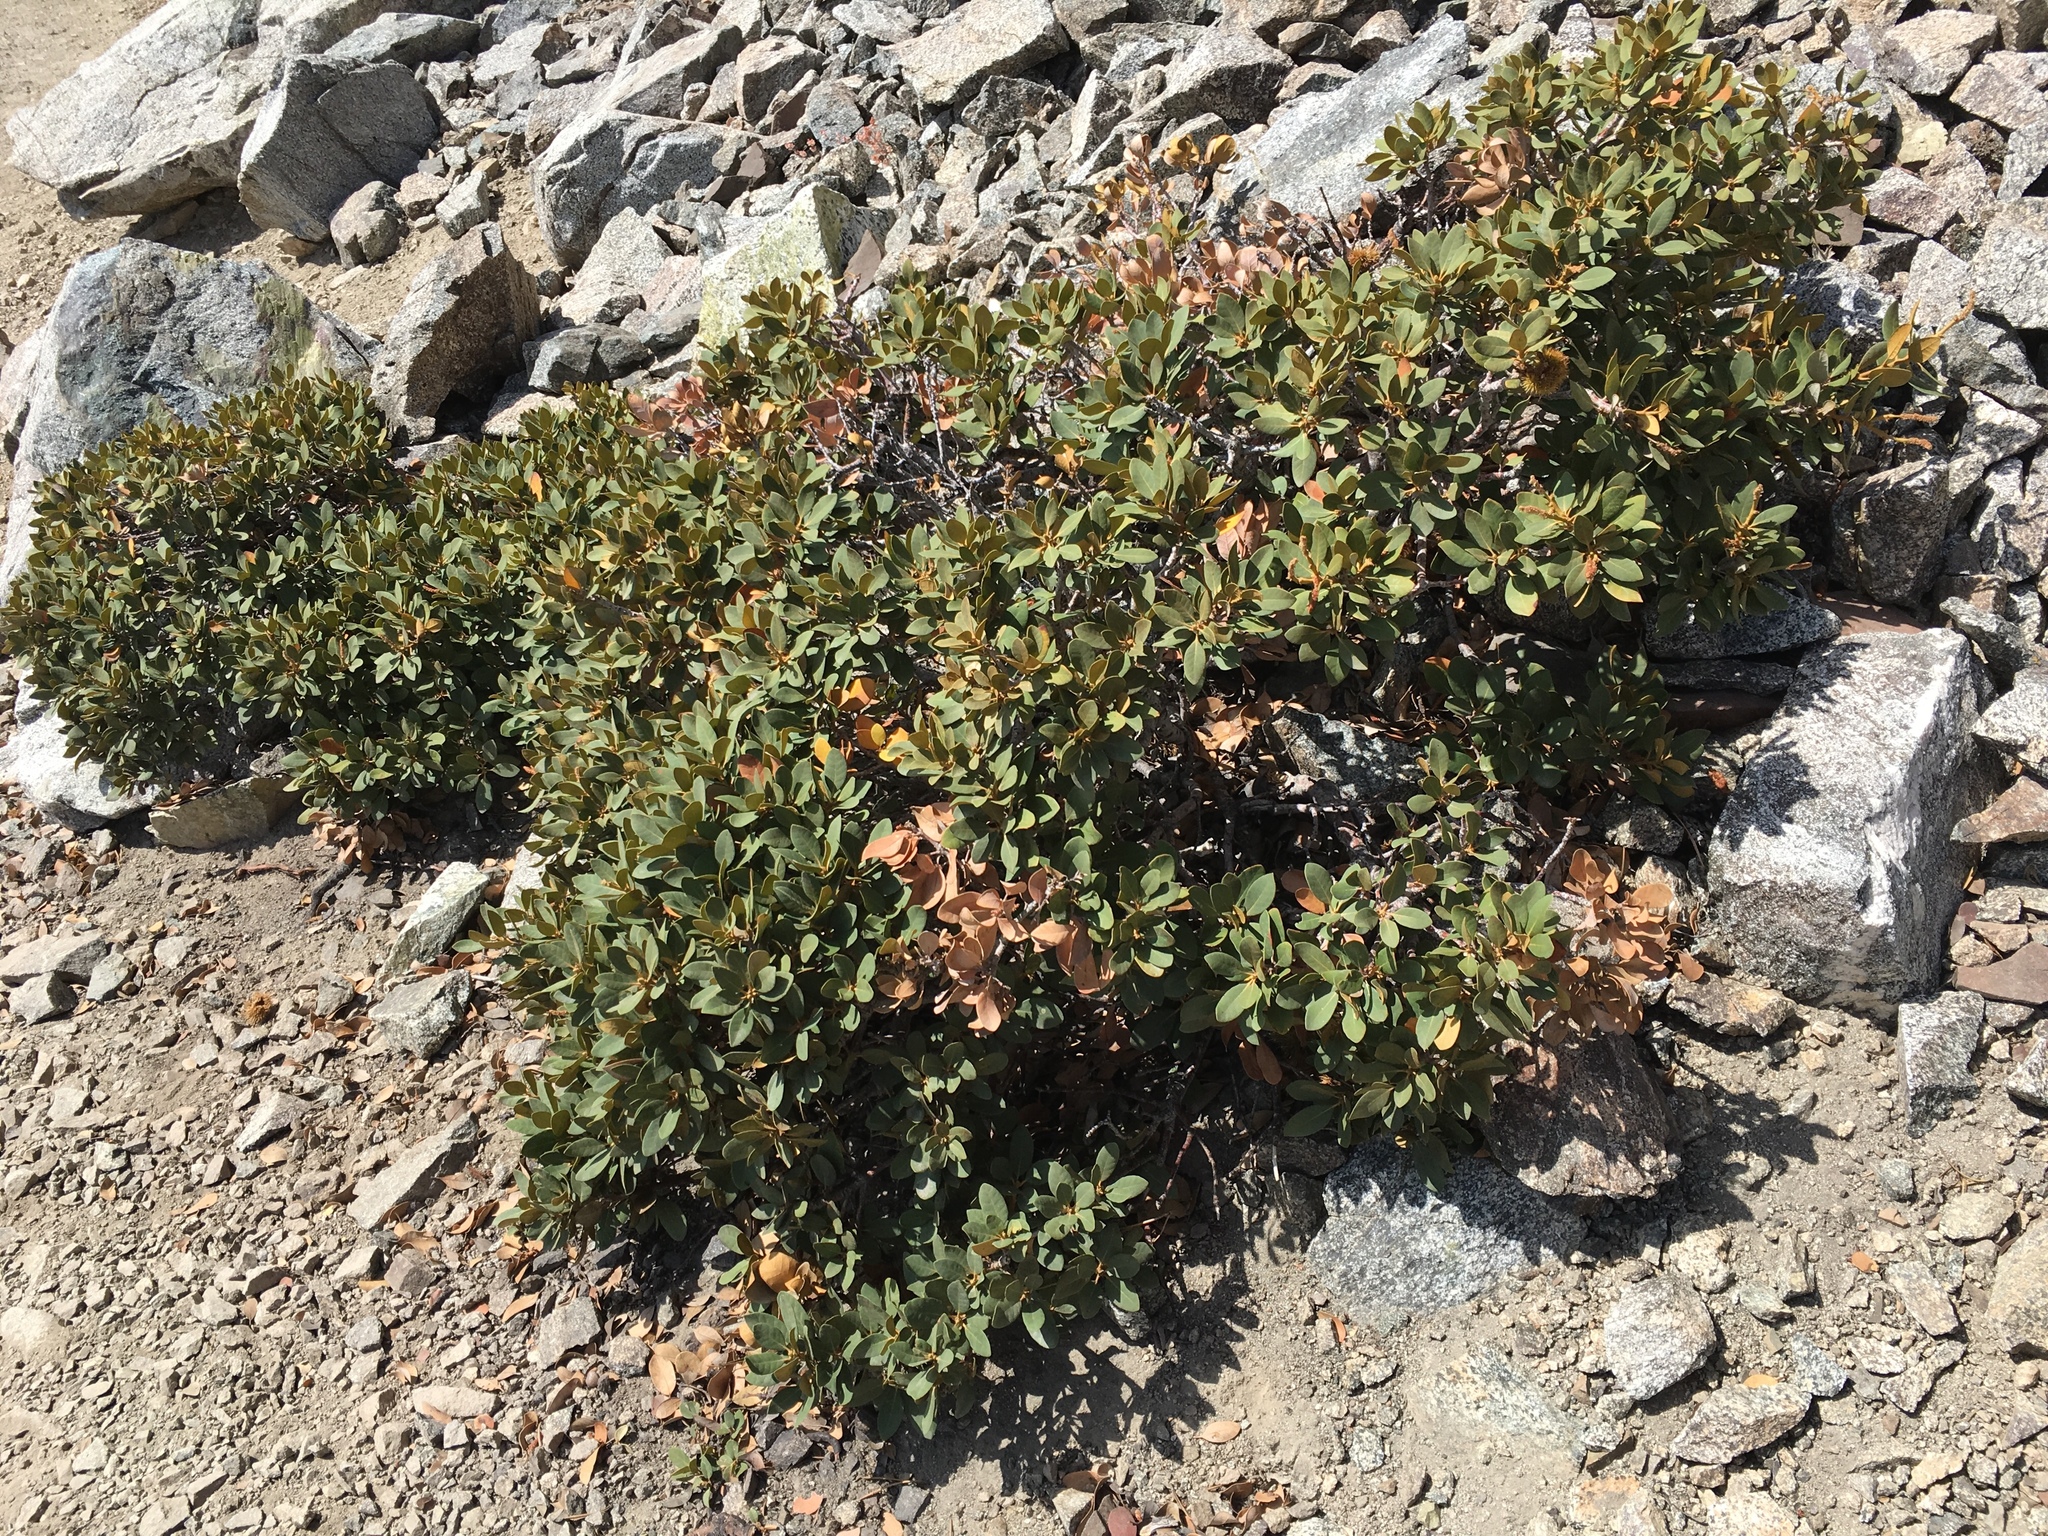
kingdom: Plantae
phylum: Tracheophyta
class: Magnoliopsida
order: Fagales
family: Fagaceae
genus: Chrysolepis
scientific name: Chrysolepis sempervirens
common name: Bush chinquapin
